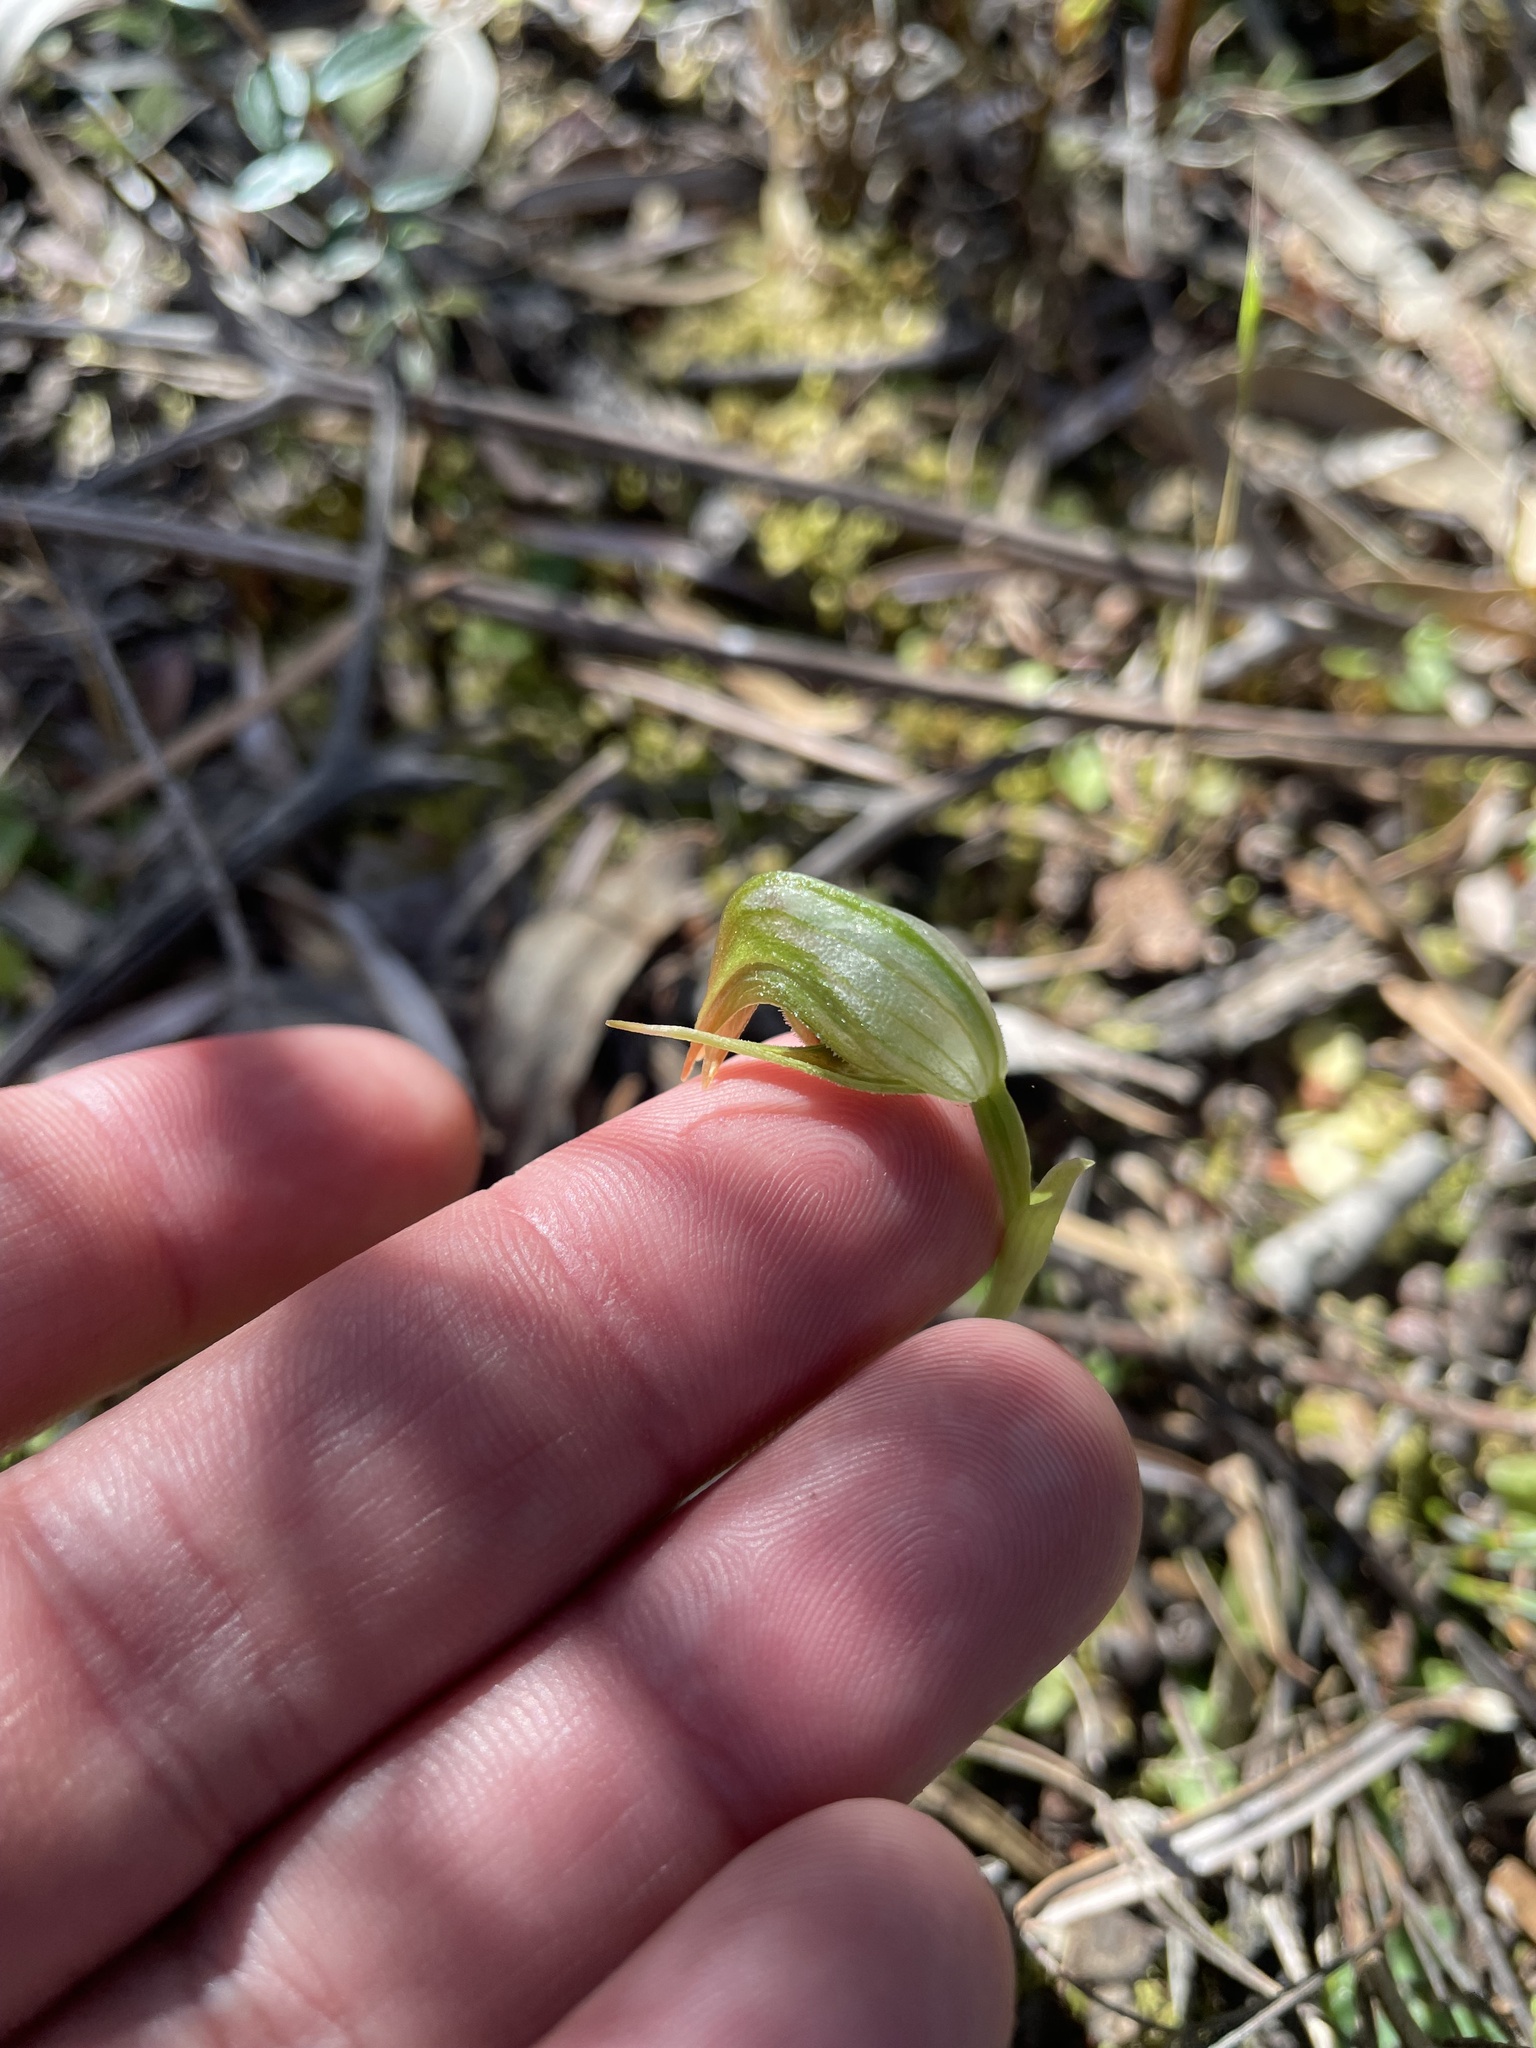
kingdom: Plantae
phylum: Tracheophyta
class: Liliopsida
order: Asparagales
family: Orchidaceae
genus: Pterostylis
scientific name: Pterostylis nutans
